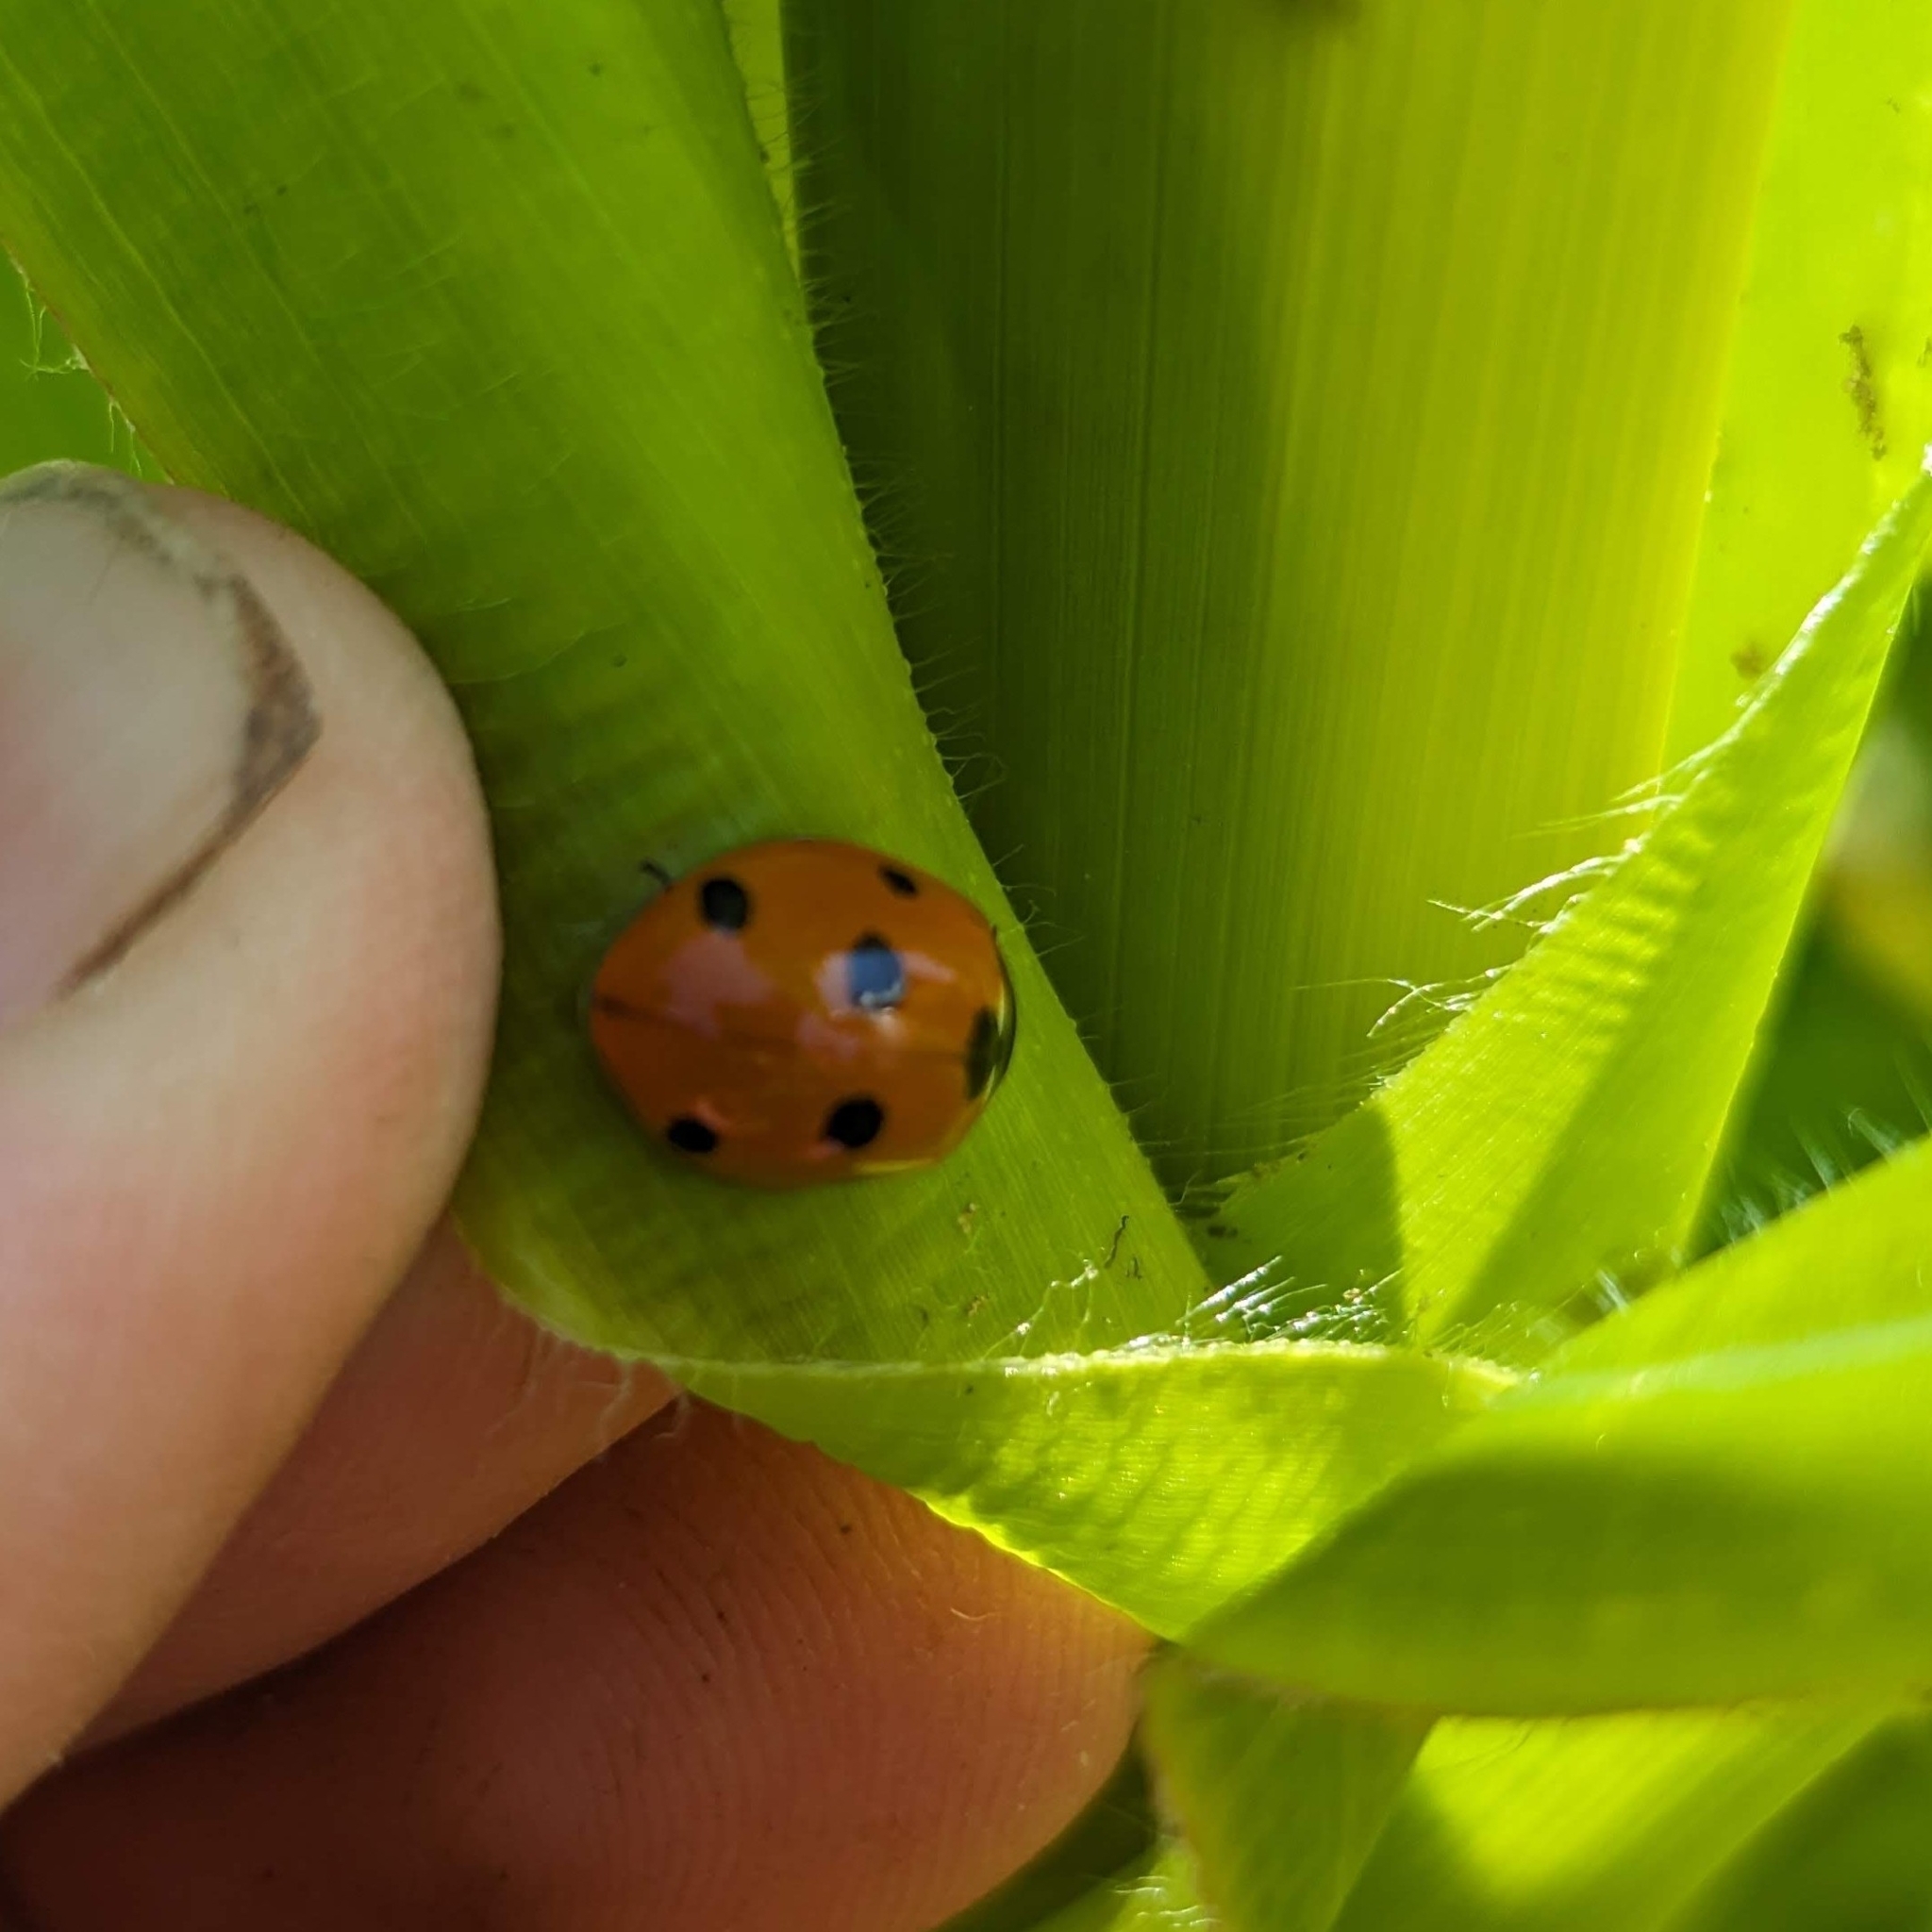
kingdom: Animalia
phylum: Arthropoda
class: Insecta
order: Coleoptera
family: Coccinellidae
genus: Coccinella
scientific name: Coccinella septempunctata
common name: Sevenspotted lady beetle
